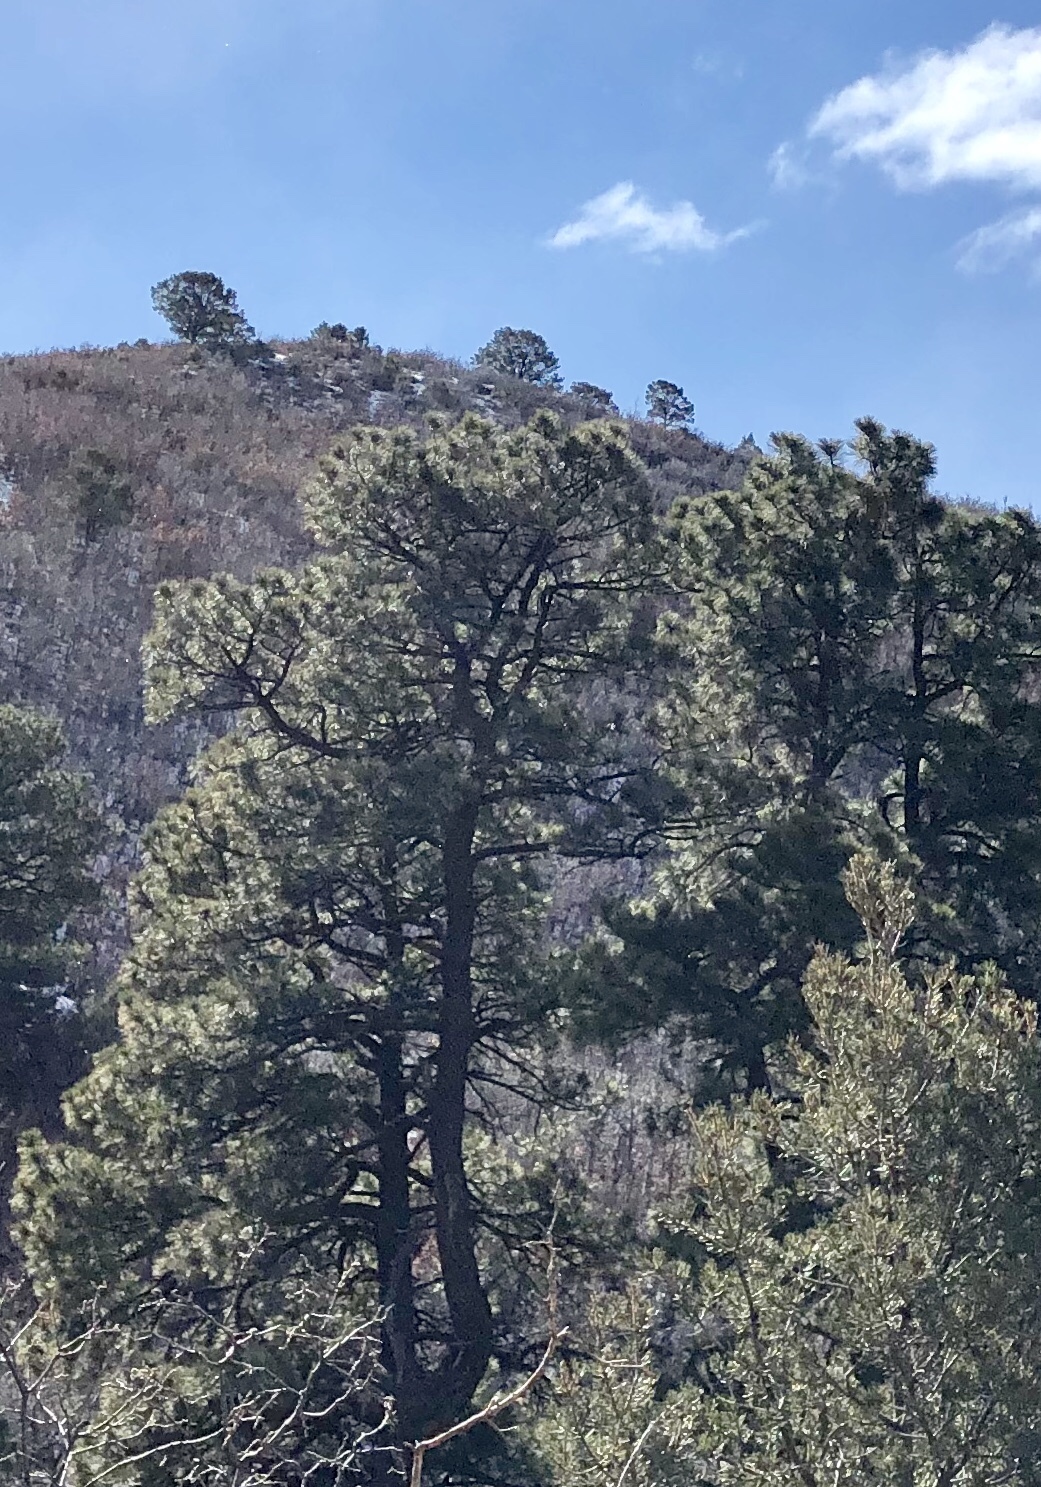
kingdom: Plantae
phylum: Tracheophyta
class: Pinopsida
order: Pinales
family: Pinaceae
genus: Pinus
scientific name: Pinus ponderosa
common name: Western yellow-pine
